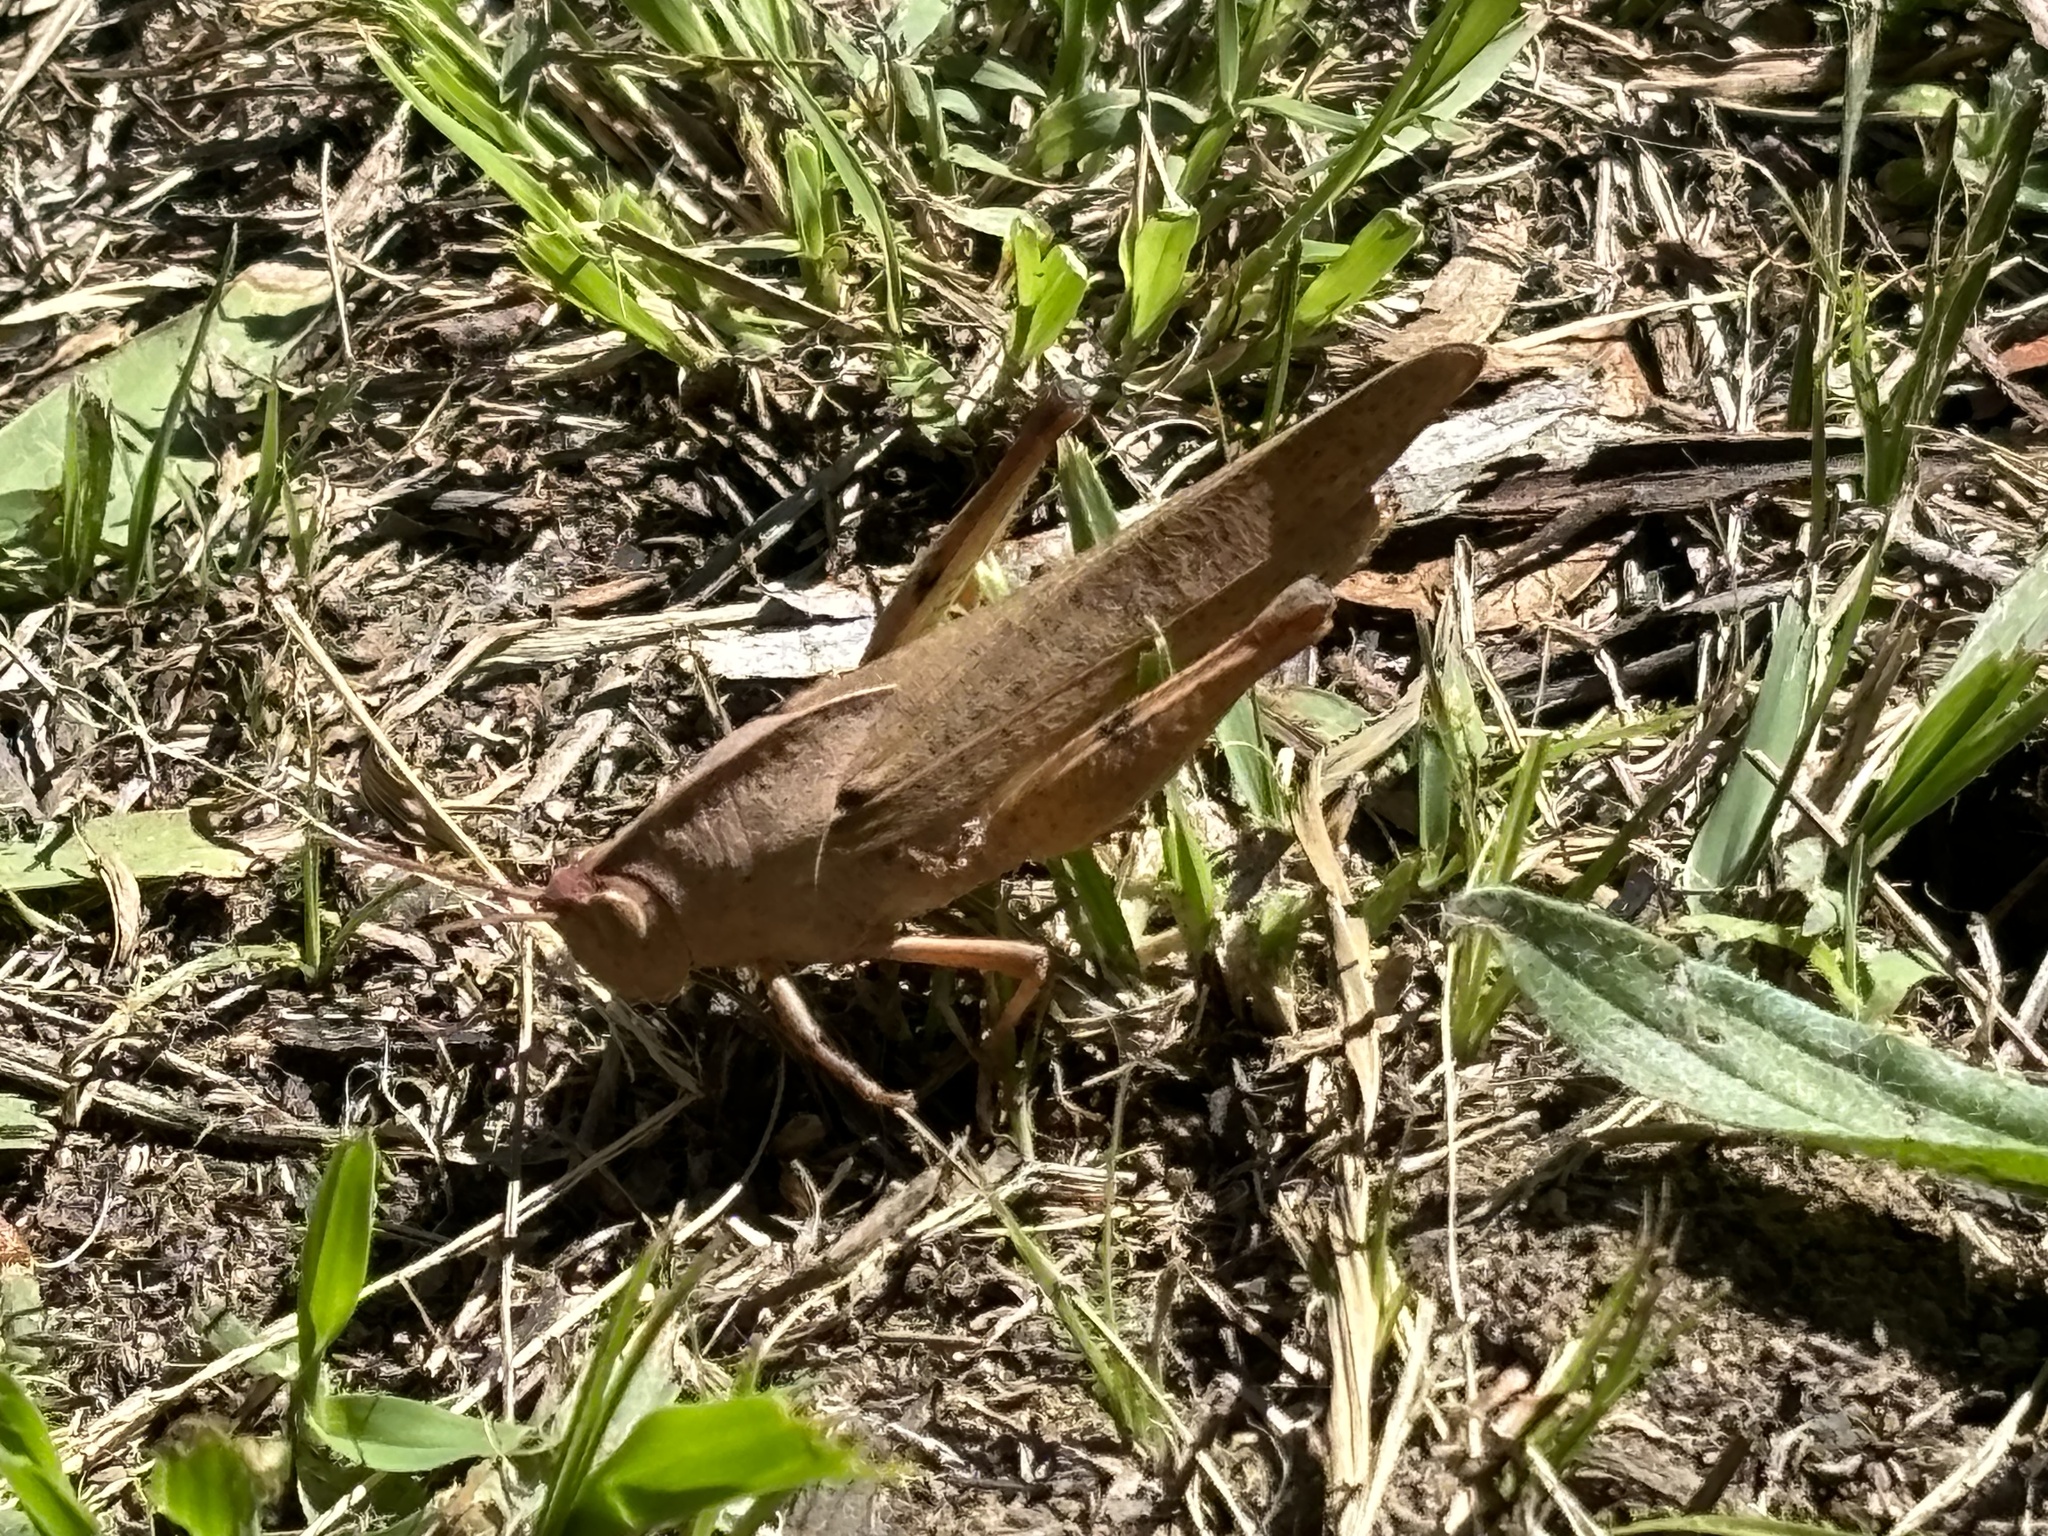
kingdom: Animalia
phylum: Arthropoda
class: Insecta
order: Orthoptera
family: Acrididae
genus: Goniaea
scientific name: Goniaea australasiae
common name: Gumleaf grasshopper
